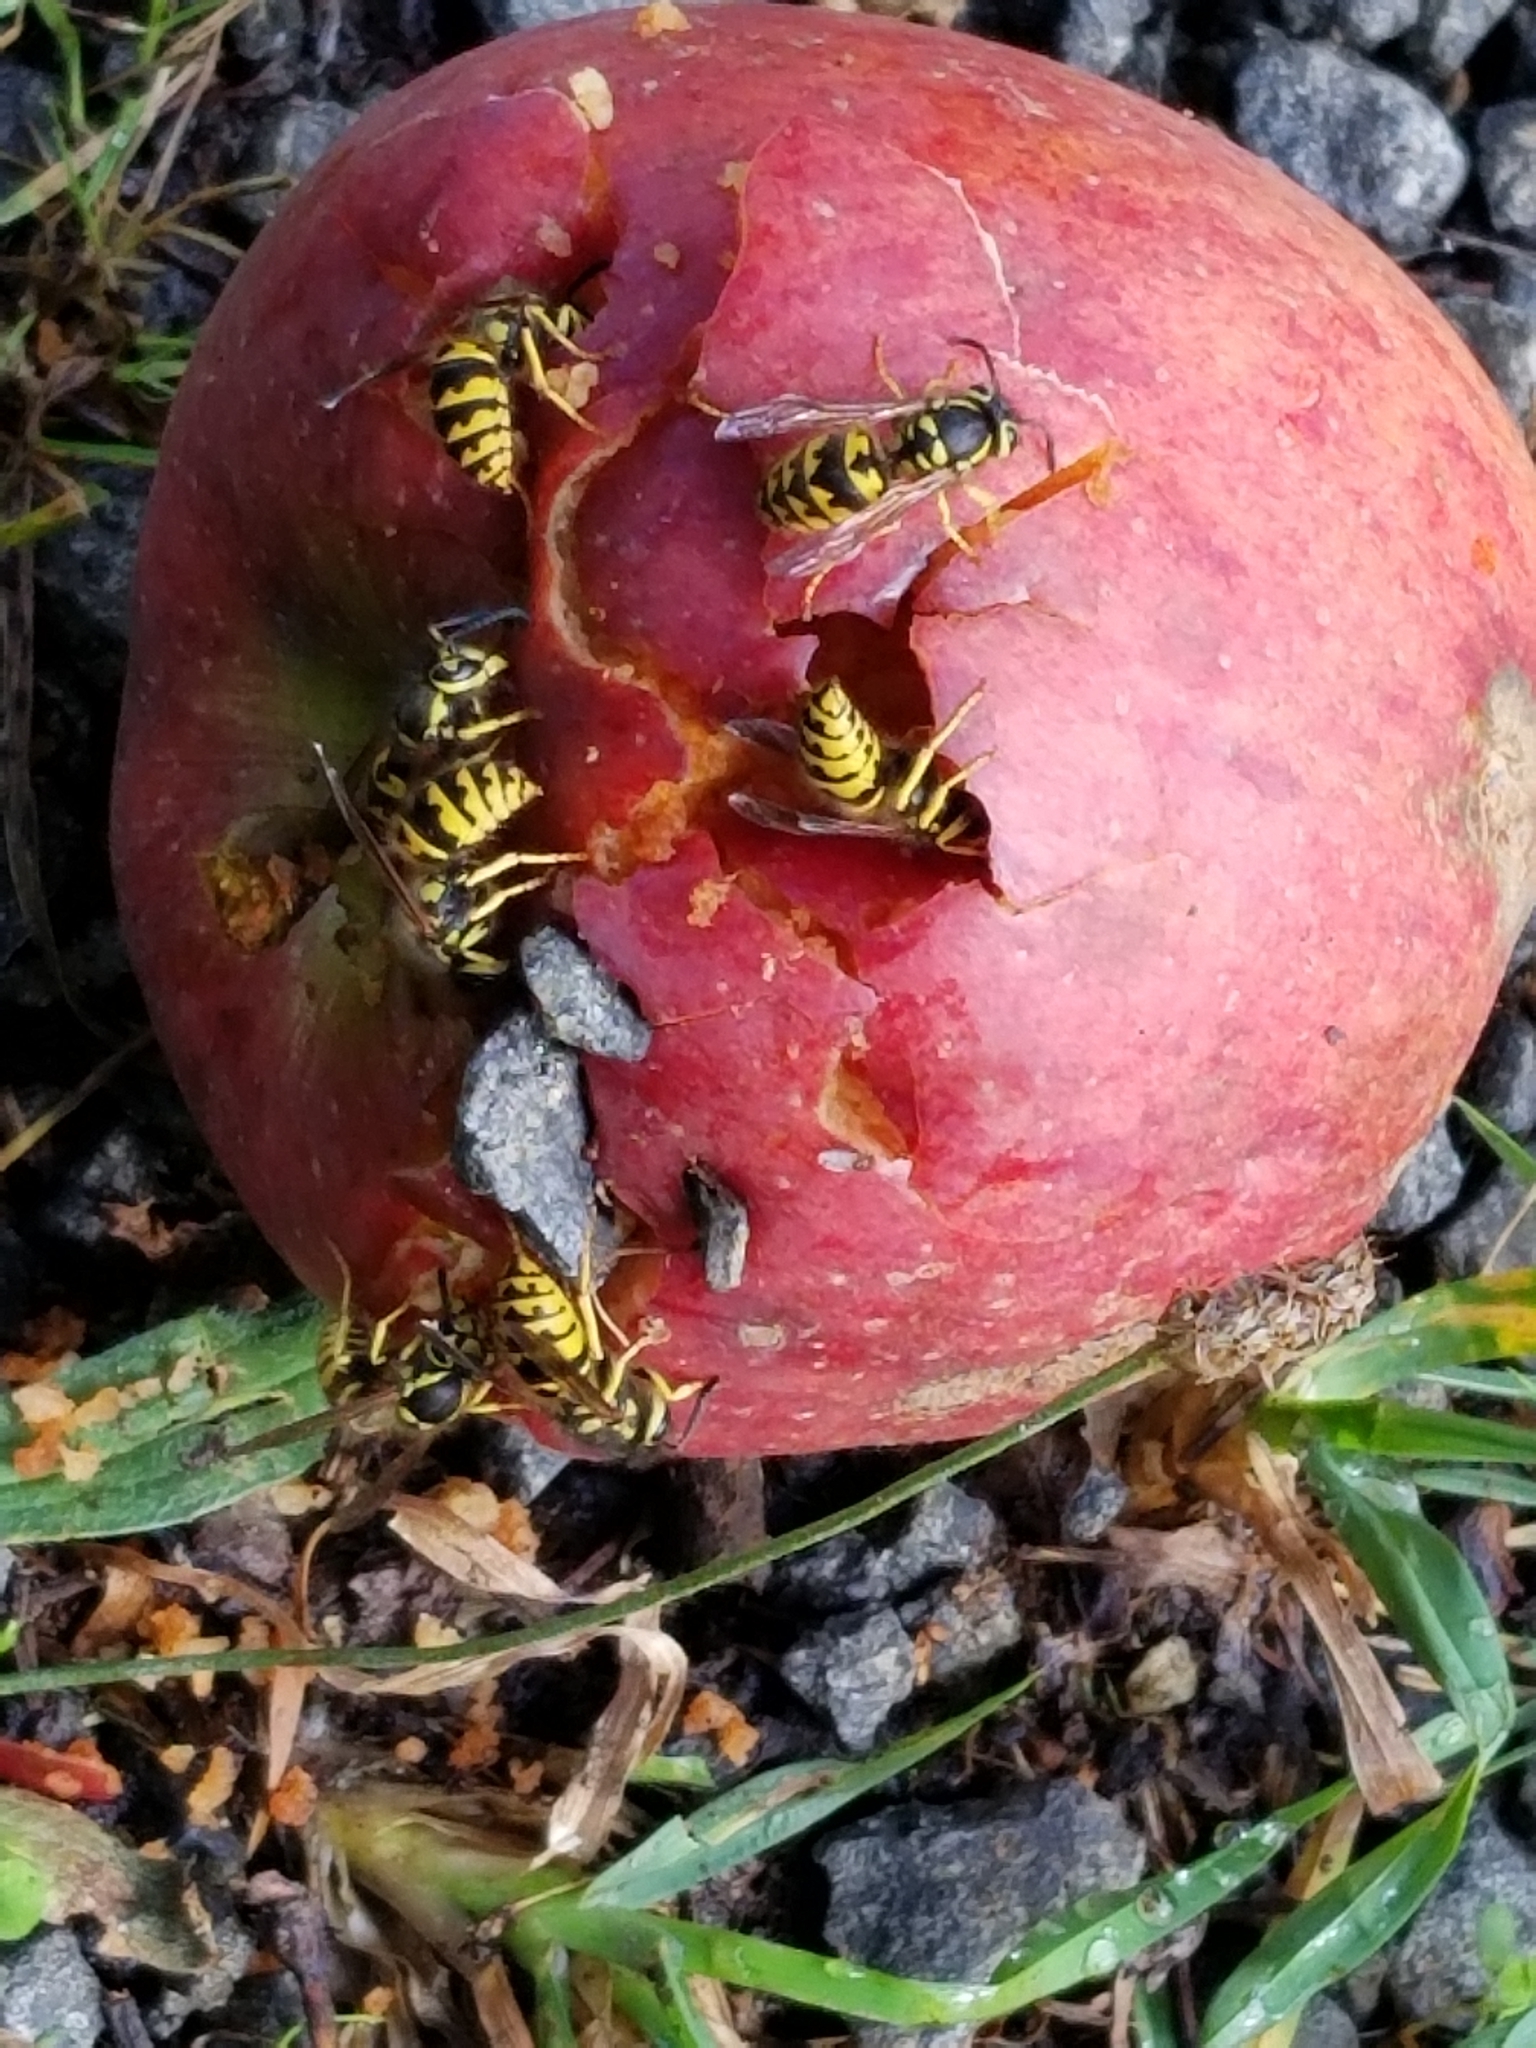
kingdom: Animalia
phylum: Arthropoda
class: Insecta
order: Hymenoptera
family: Vespidae
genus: Vespula
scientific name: Vespula pensylvanica
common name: Western yellowjacket
